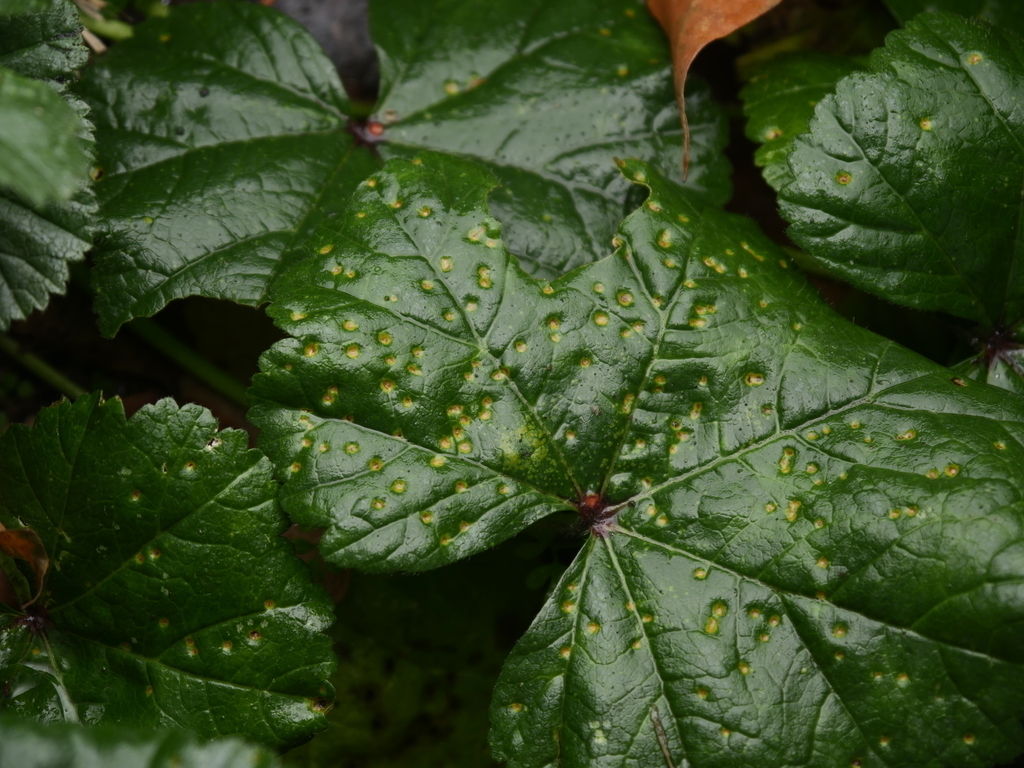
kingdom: Fungi
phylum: Basidiomycota
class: Pucciniomycetes
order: Pucciniales
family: Pucciniaceae
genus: Puccinia
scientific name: Puccinia malvacearum
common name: Hollyhock rust
